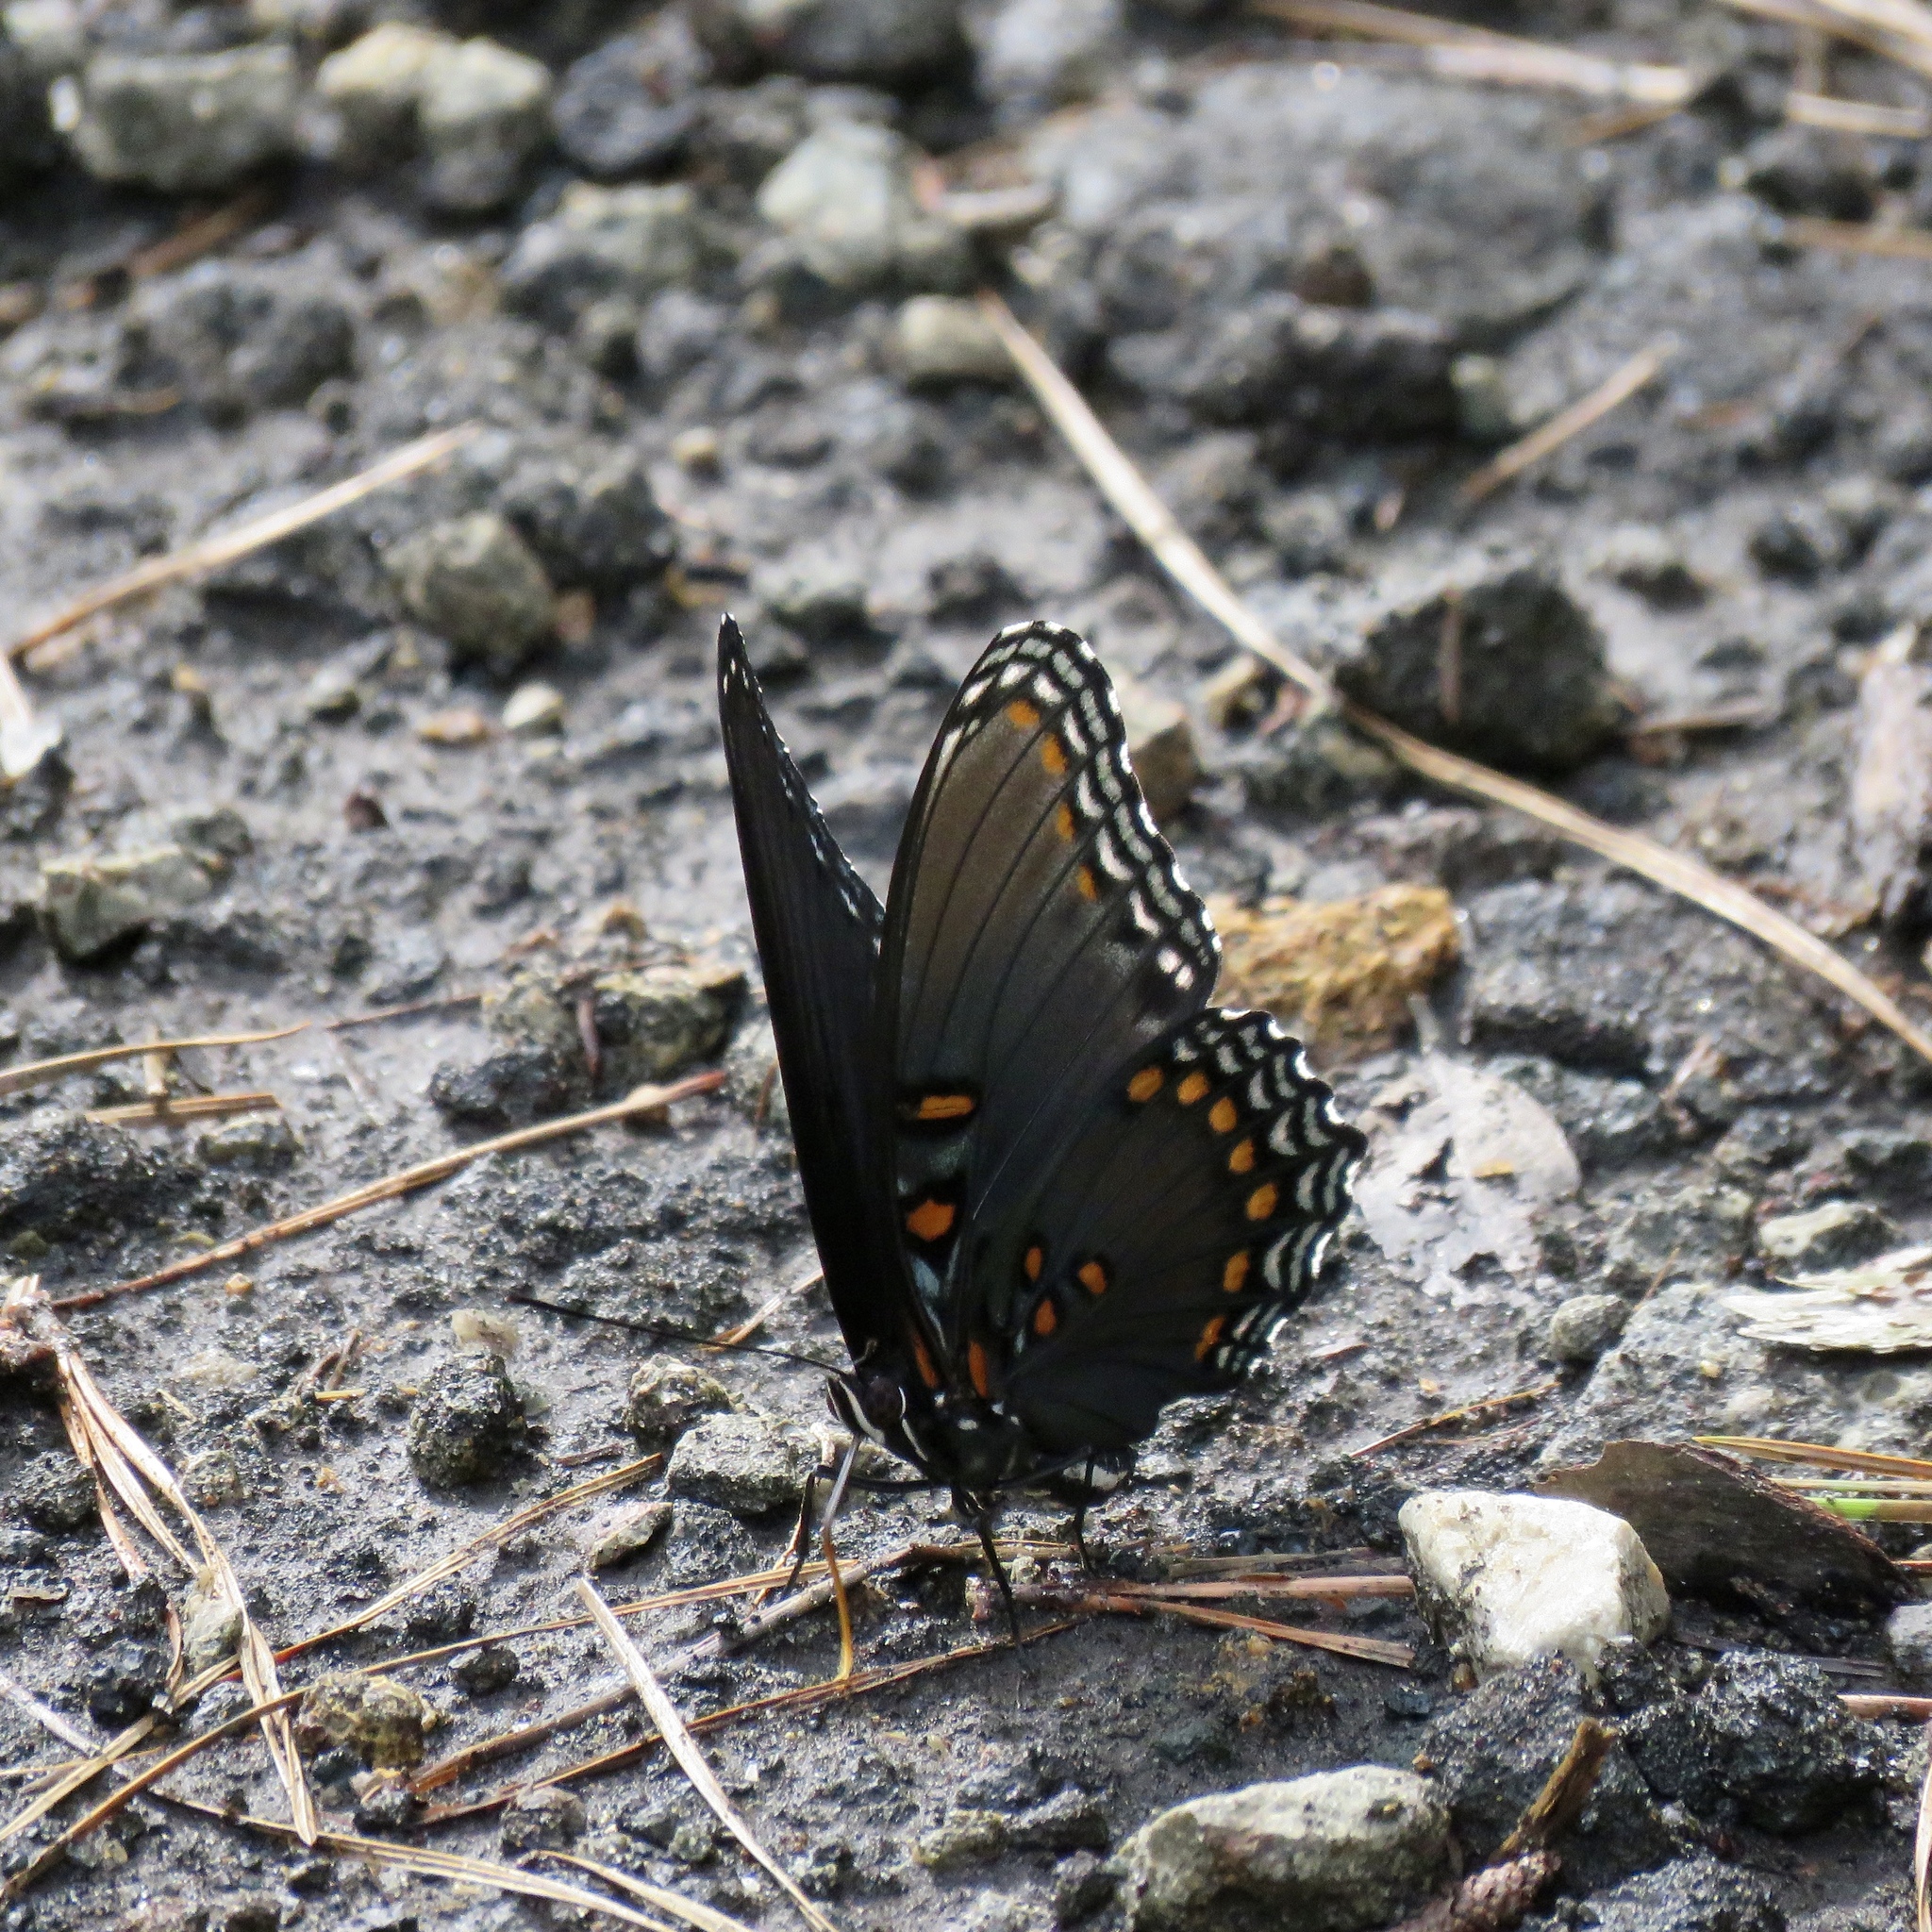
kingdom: Animalia
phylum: Arthropoda
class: Insecta
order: Lepidoptera
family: Nymphalidae
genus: Limenitis
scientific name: Limenitis arthemis
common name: Red-spotted admiral
